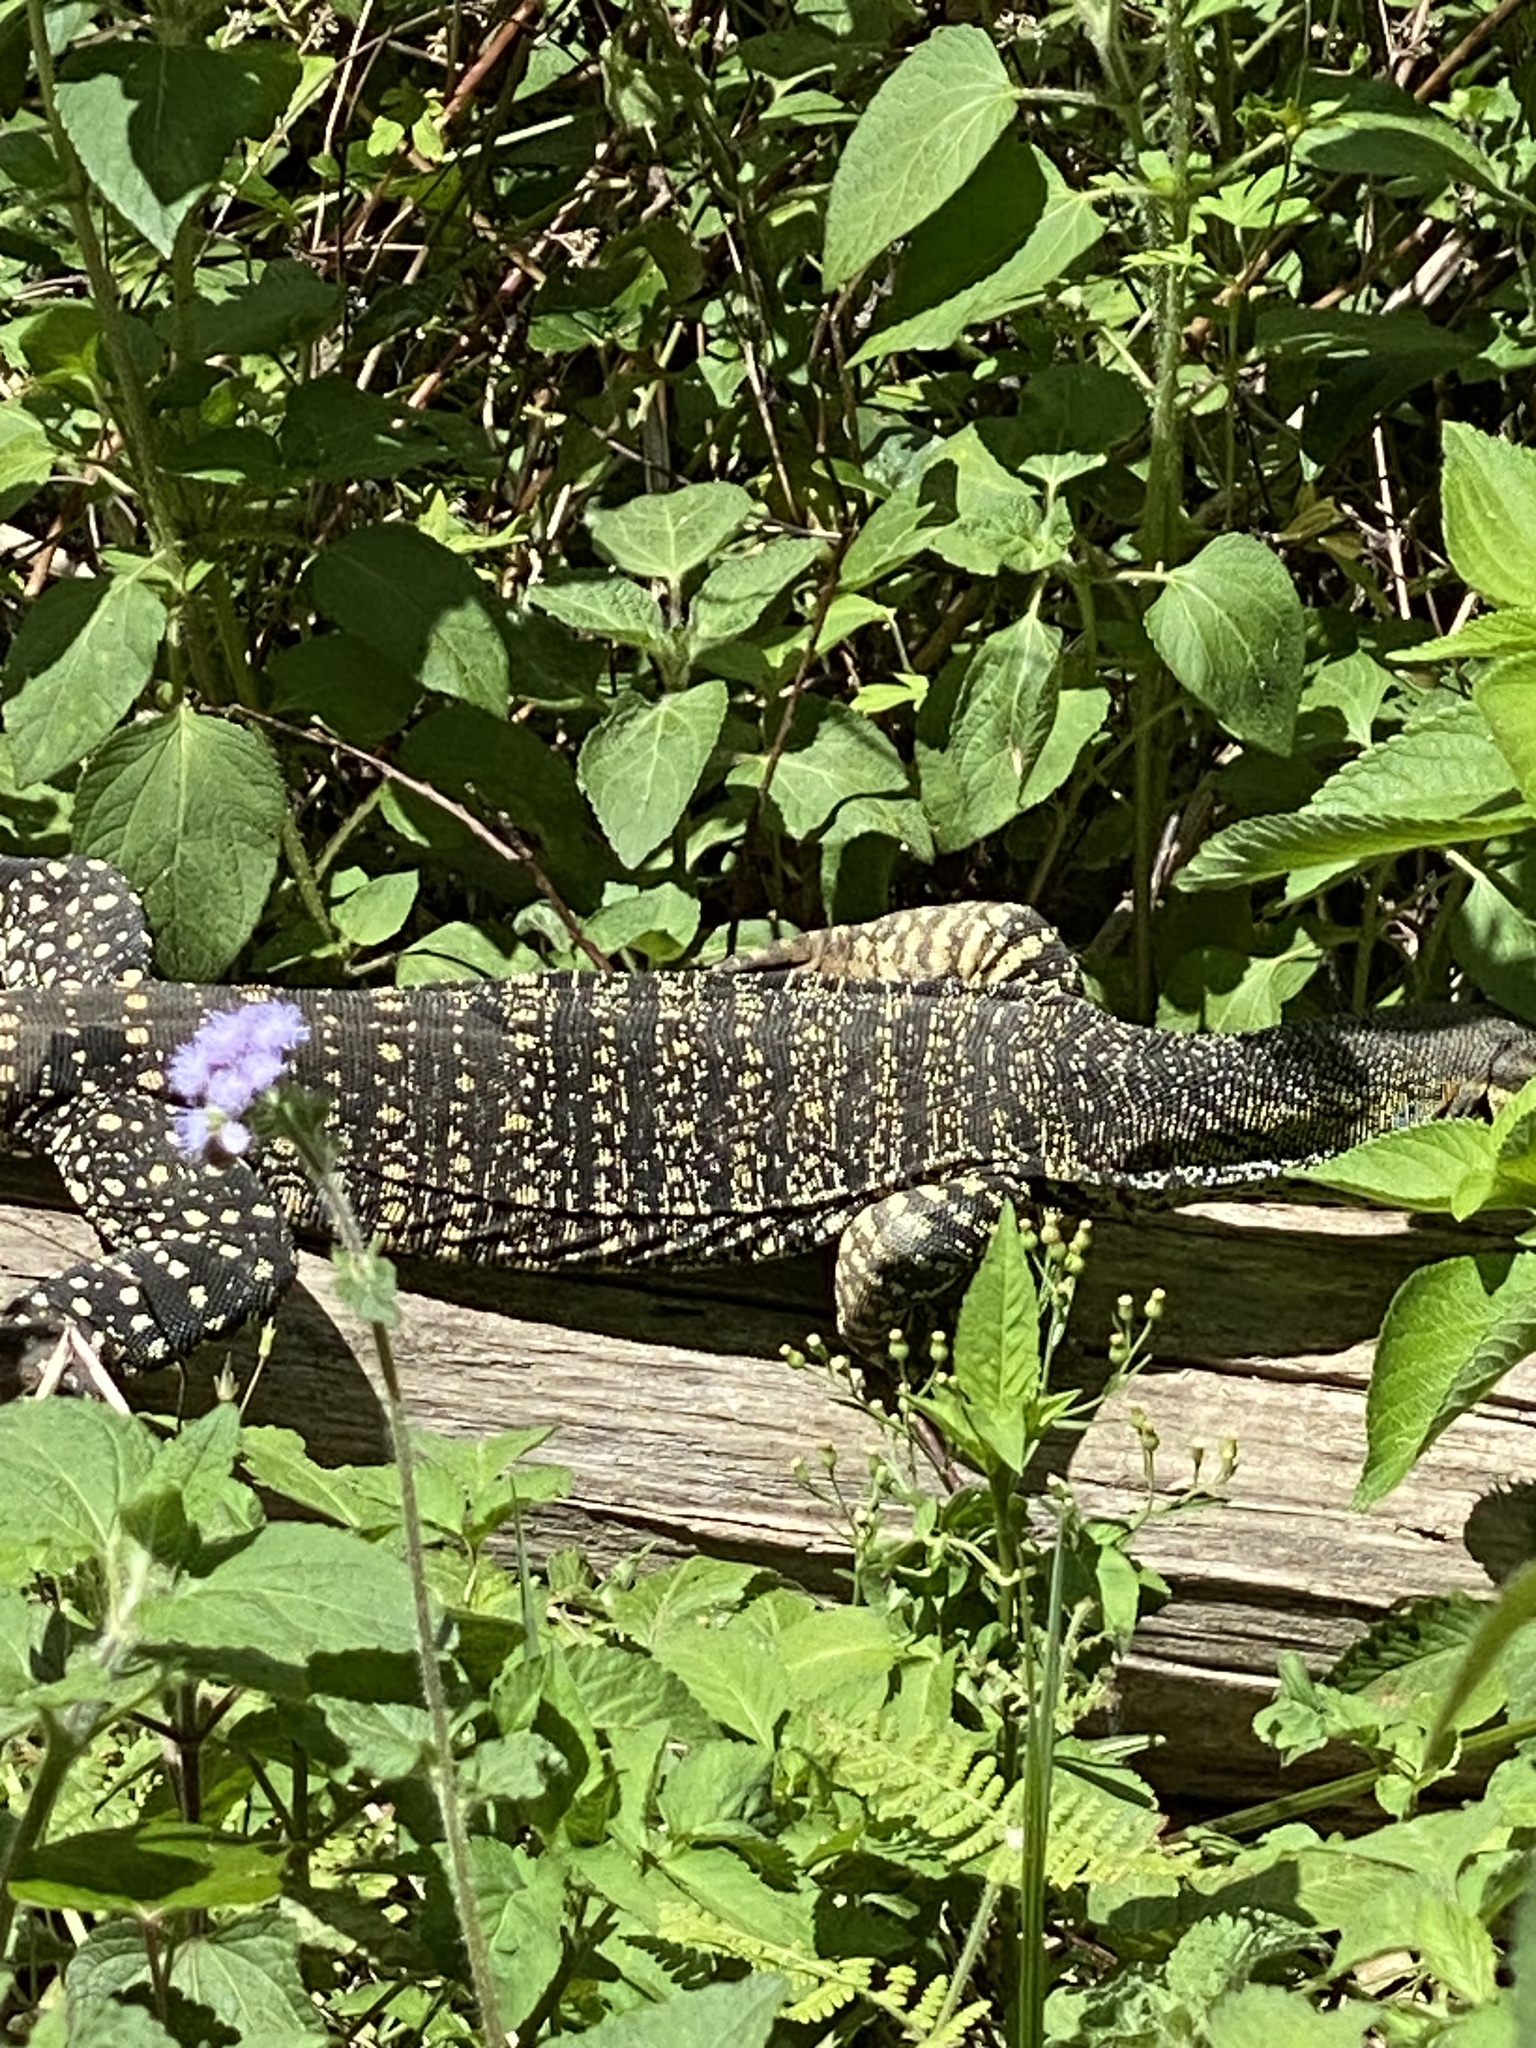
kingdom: Animalia
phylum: Chordata
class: Squamata
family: Varanidae
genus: Varanus
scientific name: Varanus varius
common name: Lace monitor
